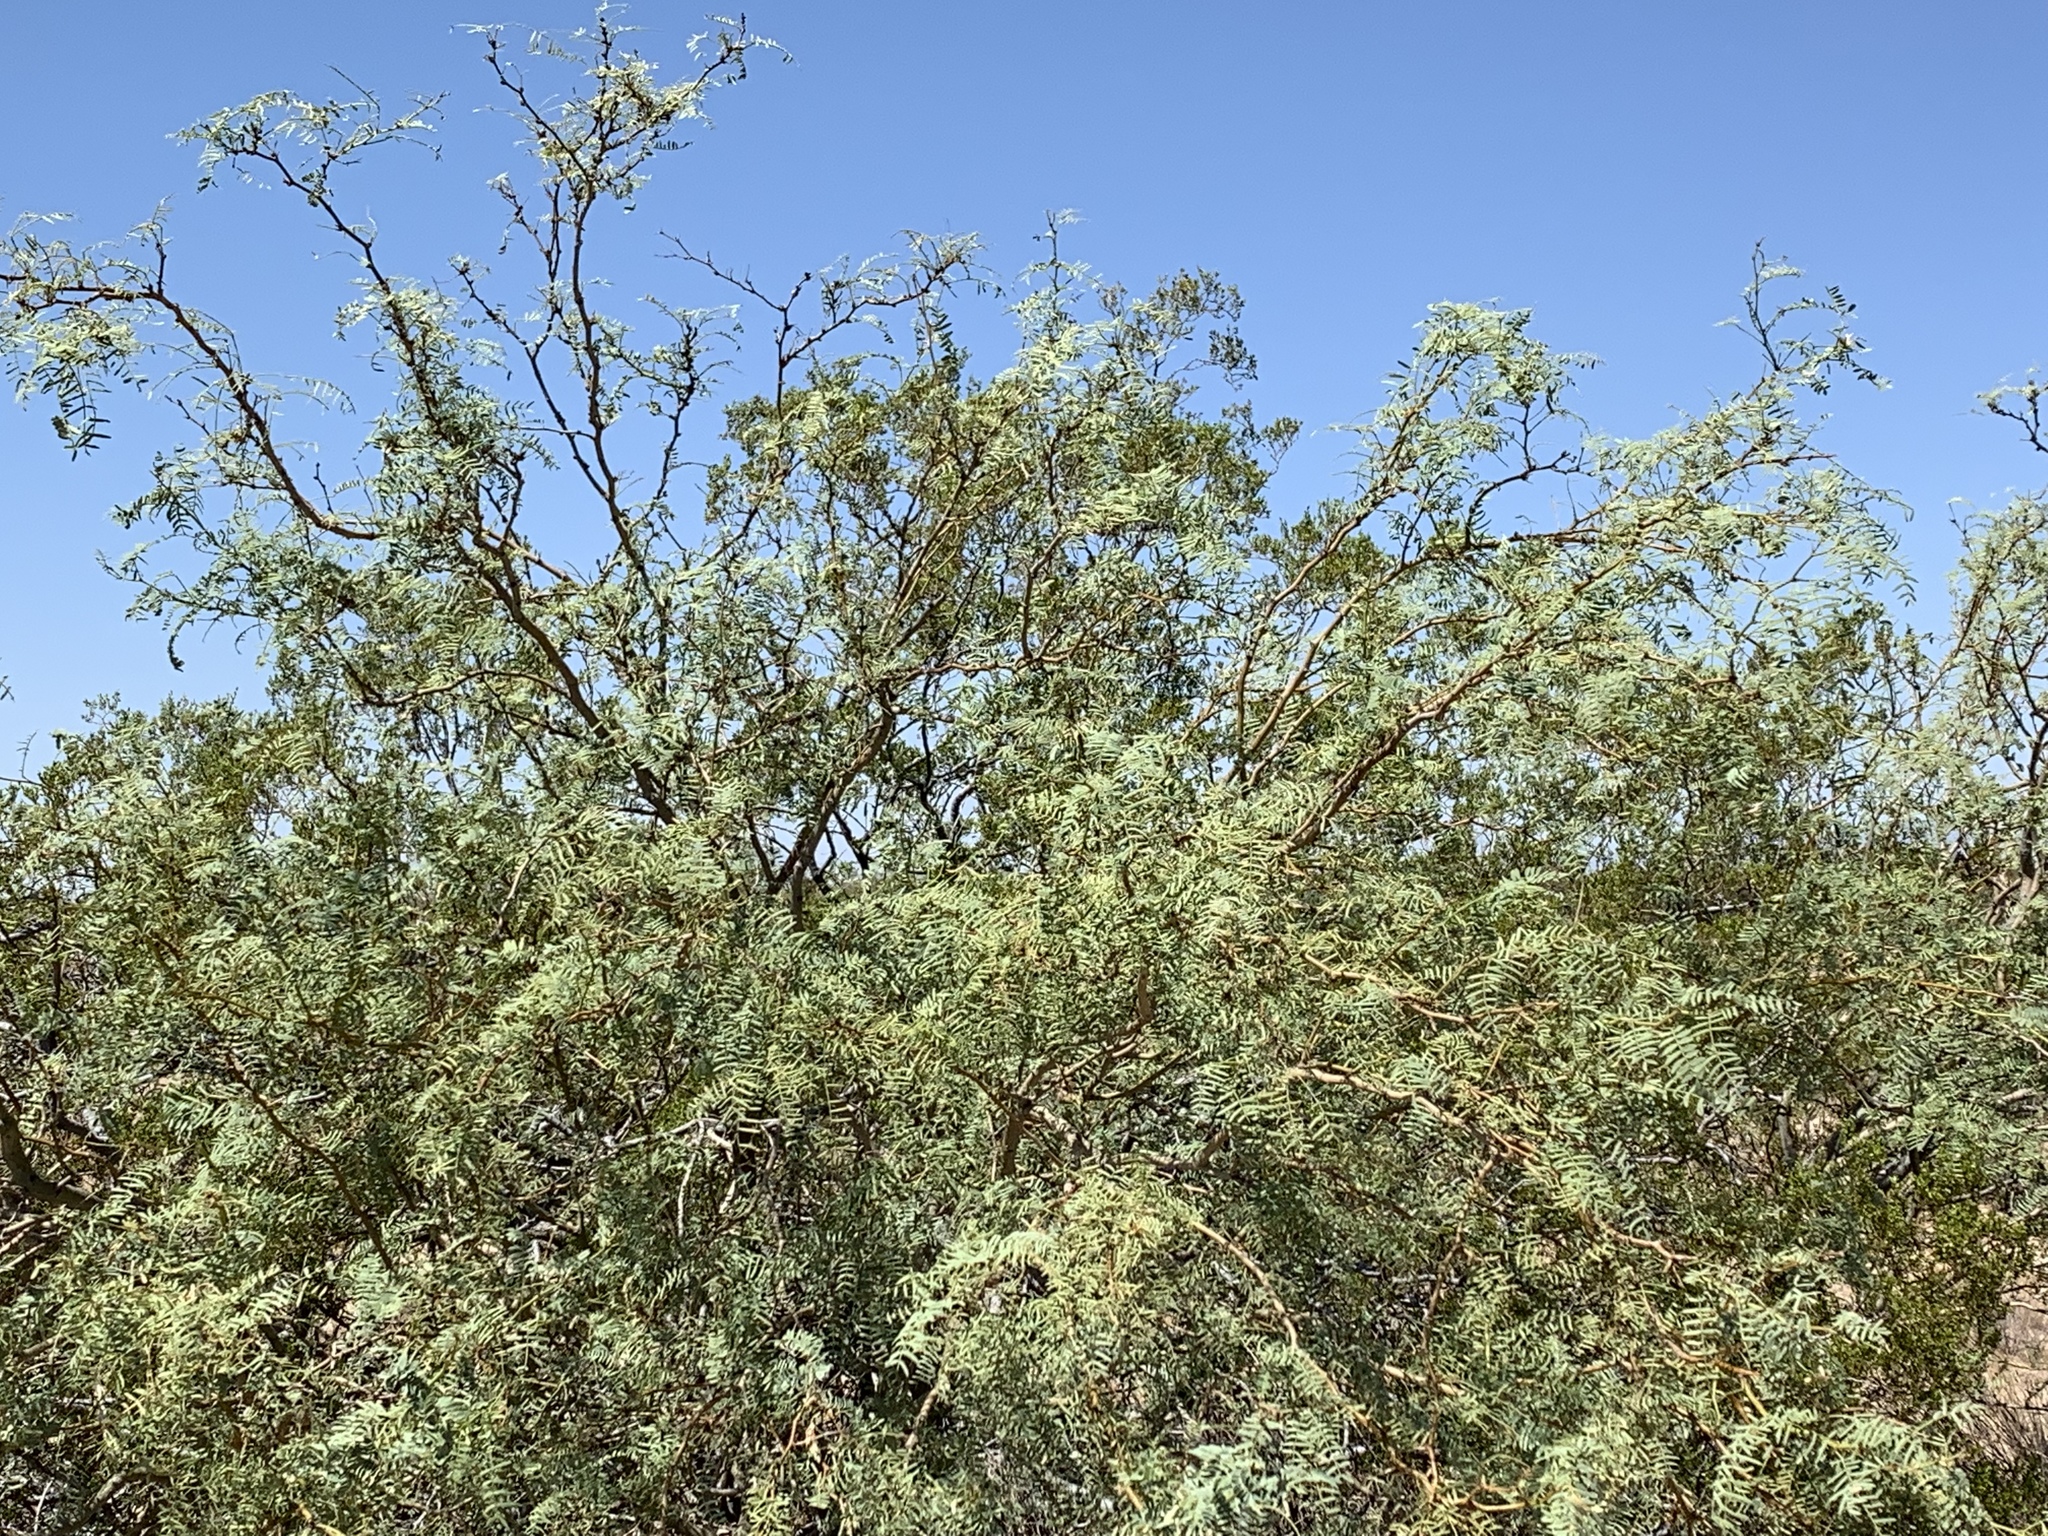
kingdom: Plantae
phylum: Tracheophyta
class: Magnoliopsida
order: Fabales
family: Fabaceae
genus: Prosopis
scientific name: Prosopis glandulosa
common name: Honey mesquite
